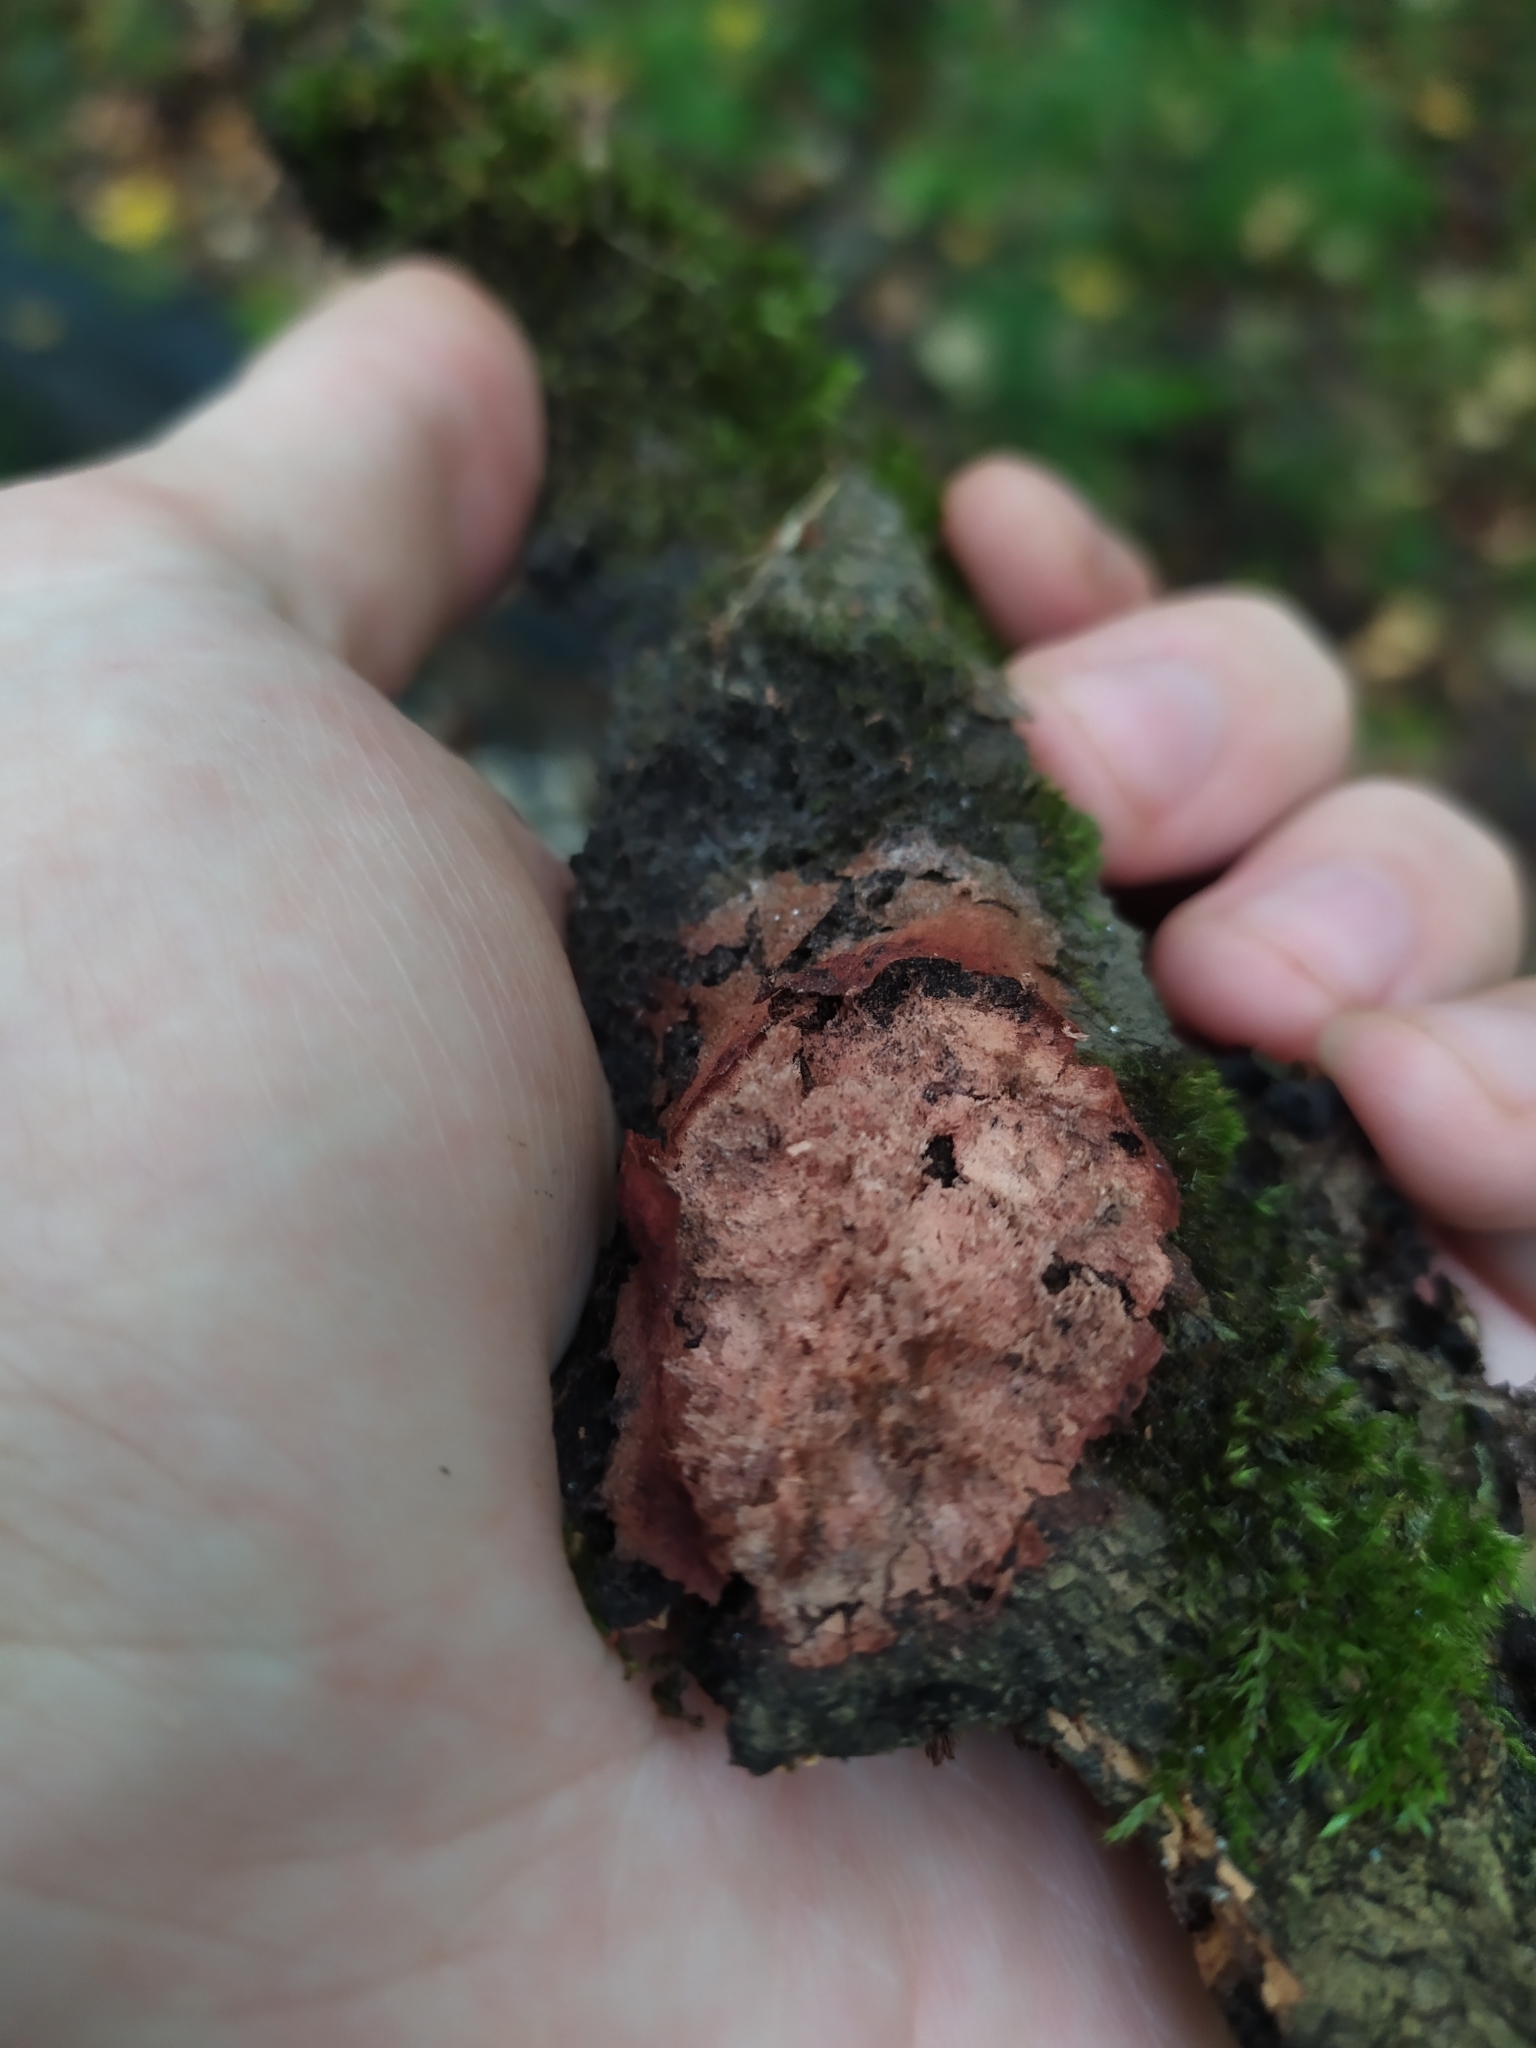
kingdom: Protozoa
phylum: Mycetozoa
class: Myxomycetes
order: Physarales
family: Physaraceae
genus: Fuligo
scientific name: Fuligo leviderma
